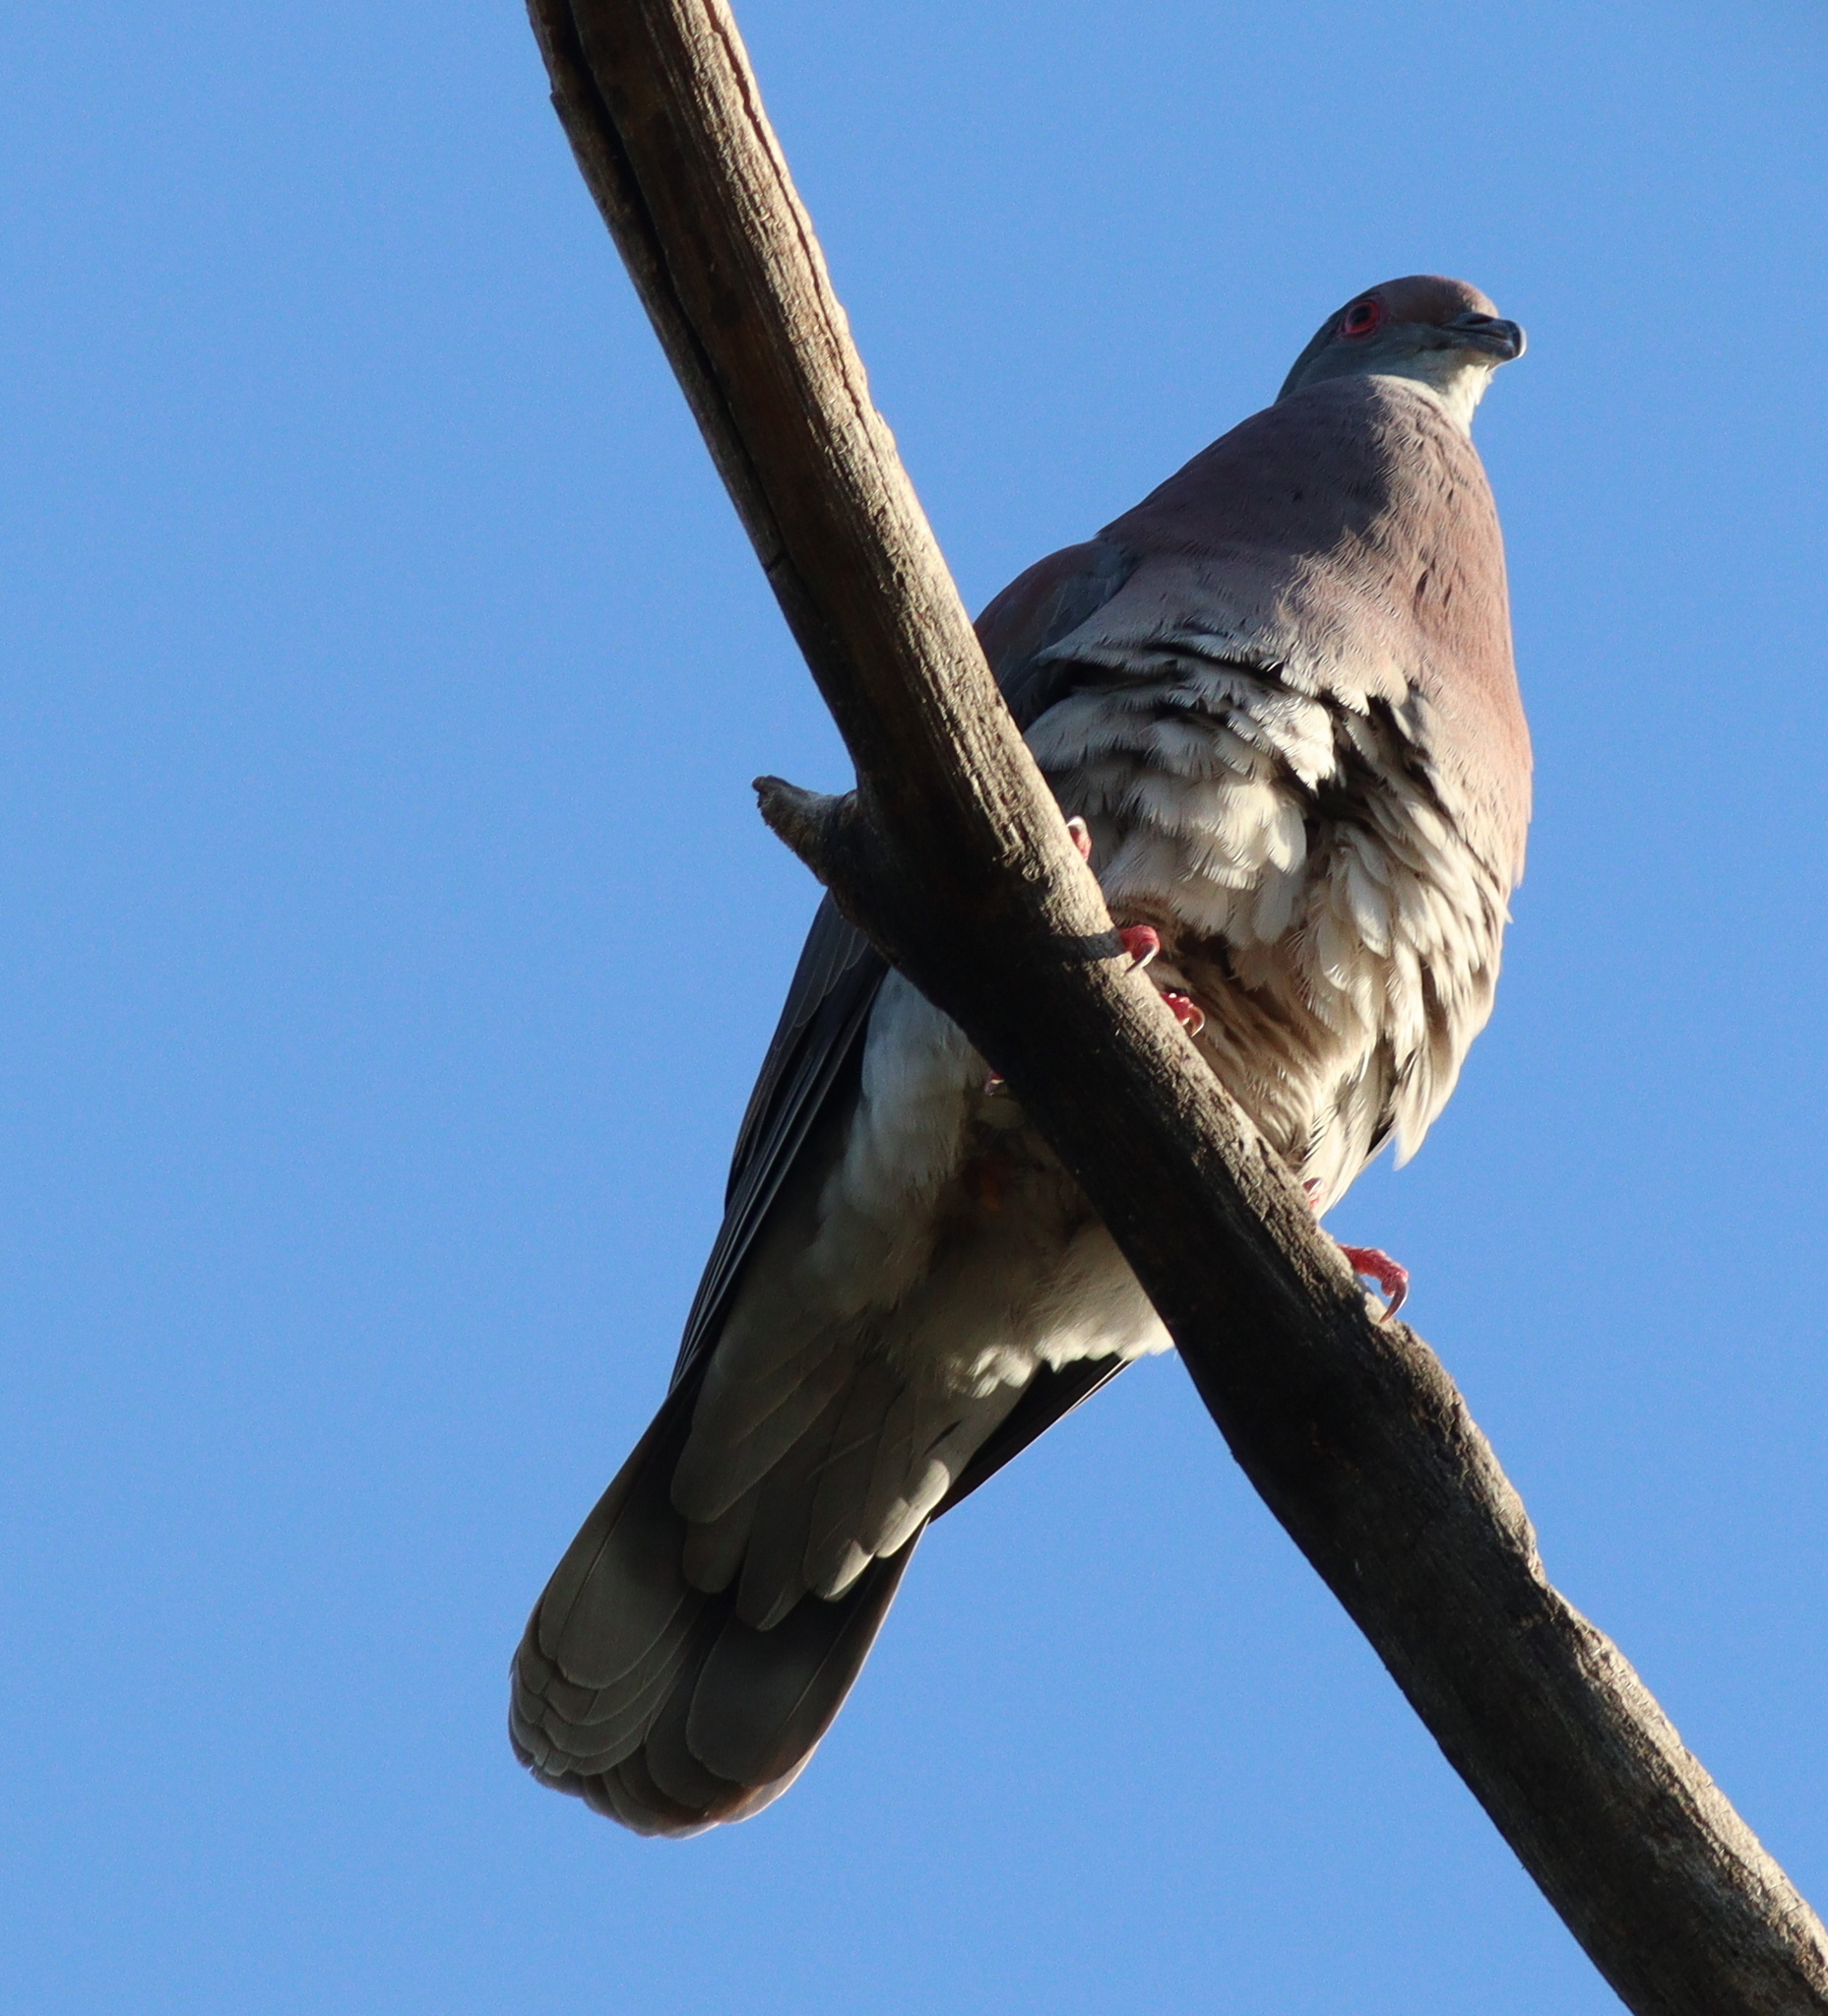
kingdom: Animalia
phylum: Chordata
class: Aves
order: Columbiformes
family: Columbidae
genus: Patagioenas
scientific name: Patagioenas cayennensis
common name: Pale-vented pigeon
